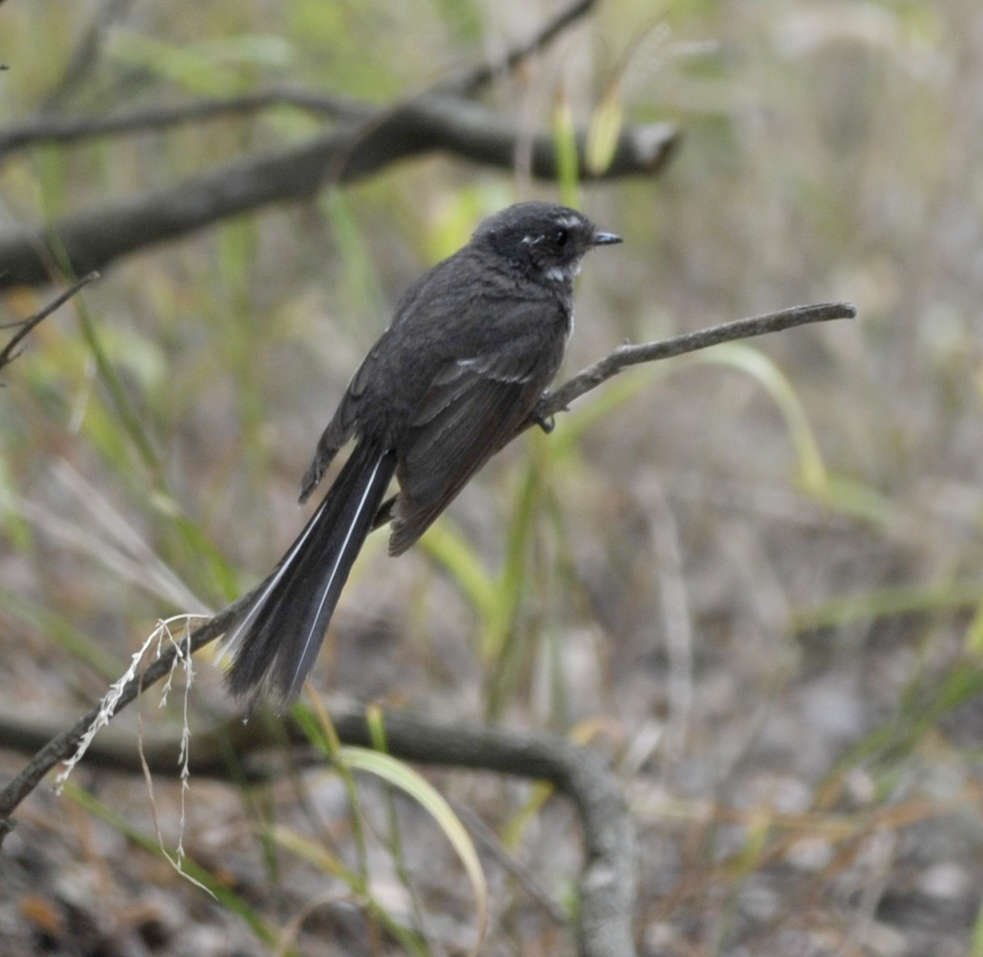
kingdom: Animalia
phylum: Chordata
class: Aves
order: Passeriformes
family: Rhipiduridae
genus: Rhipidura
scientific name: Rhipidura albiscapa
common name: Grey fantail
